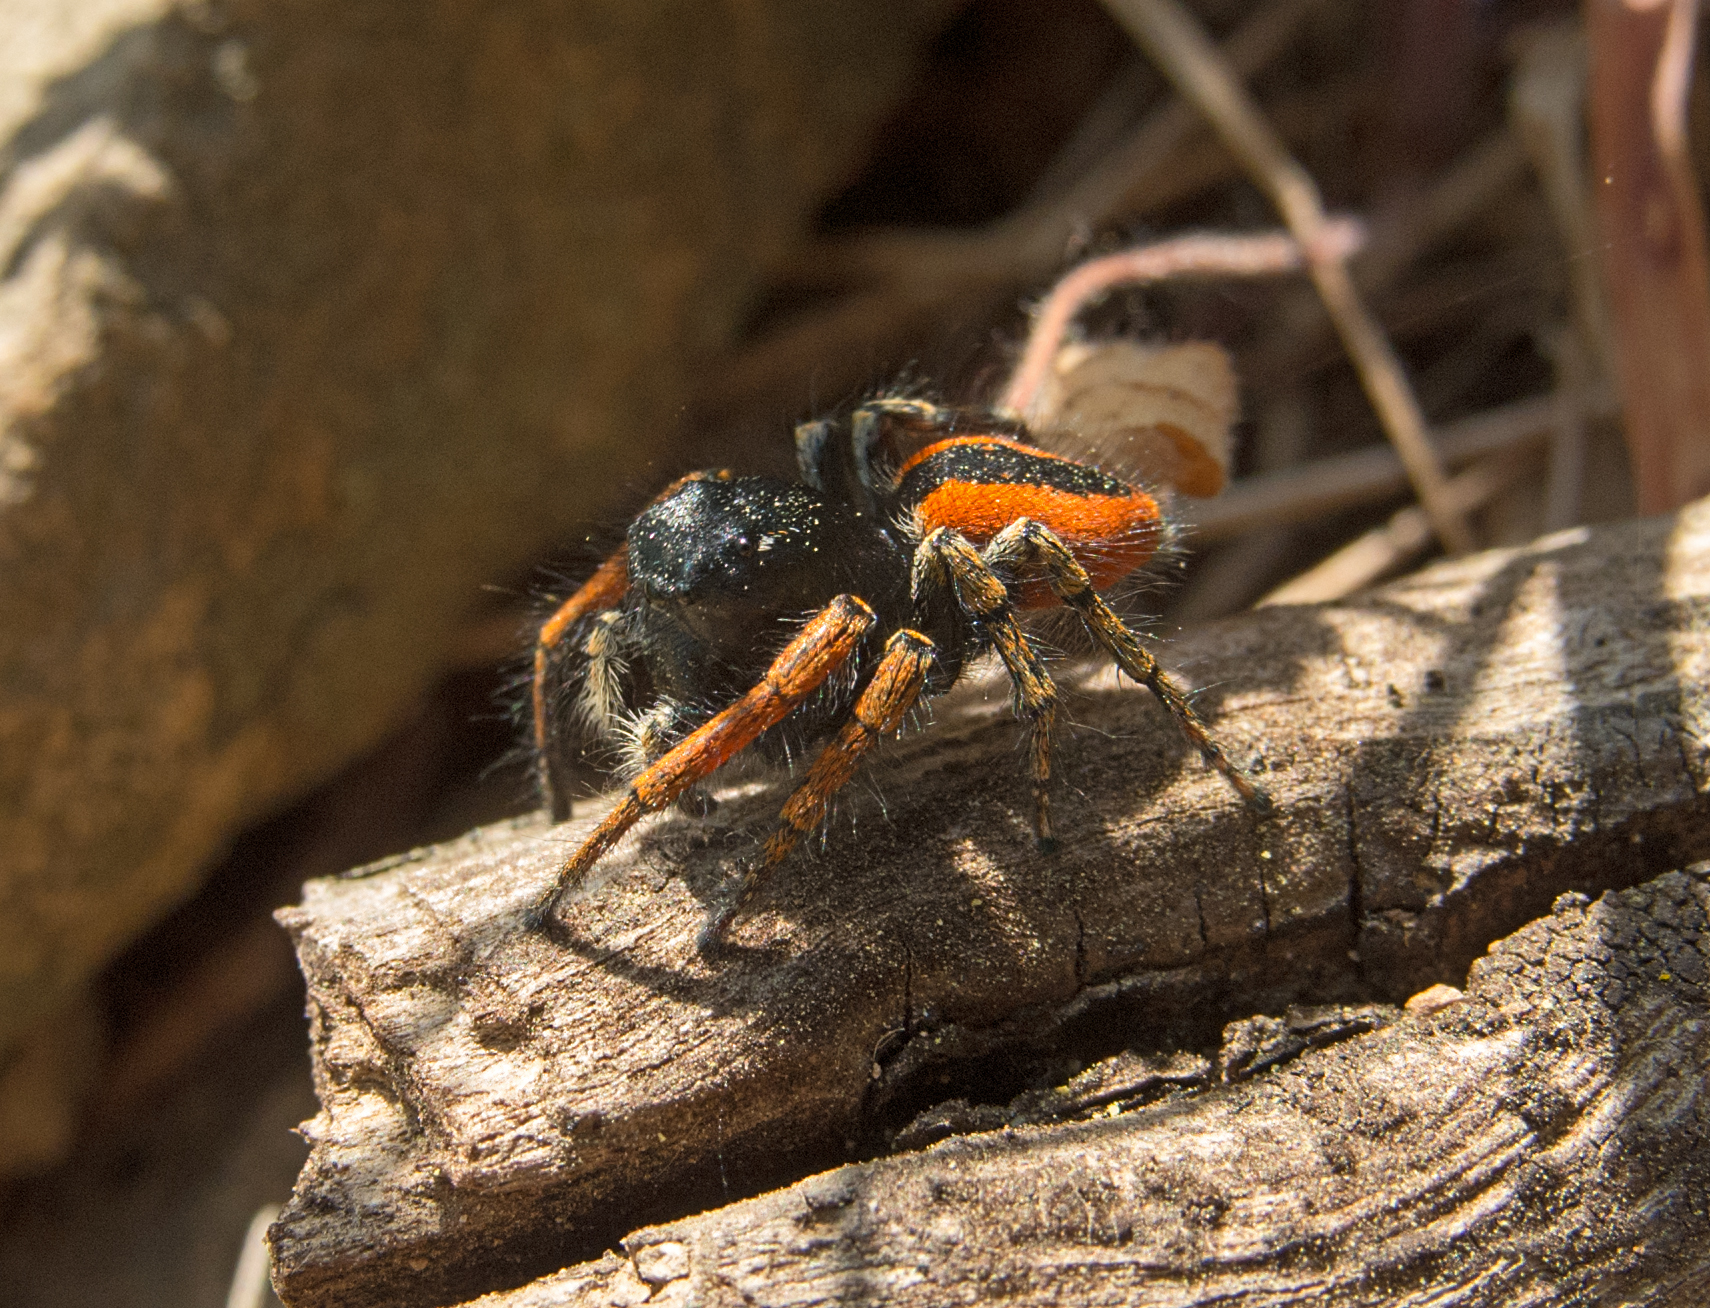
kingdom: Animalia
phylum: Arthropoda
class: Arachnida
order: Araneae
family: Salticidae
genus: Philaeus
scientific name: Philaeus chrysops
